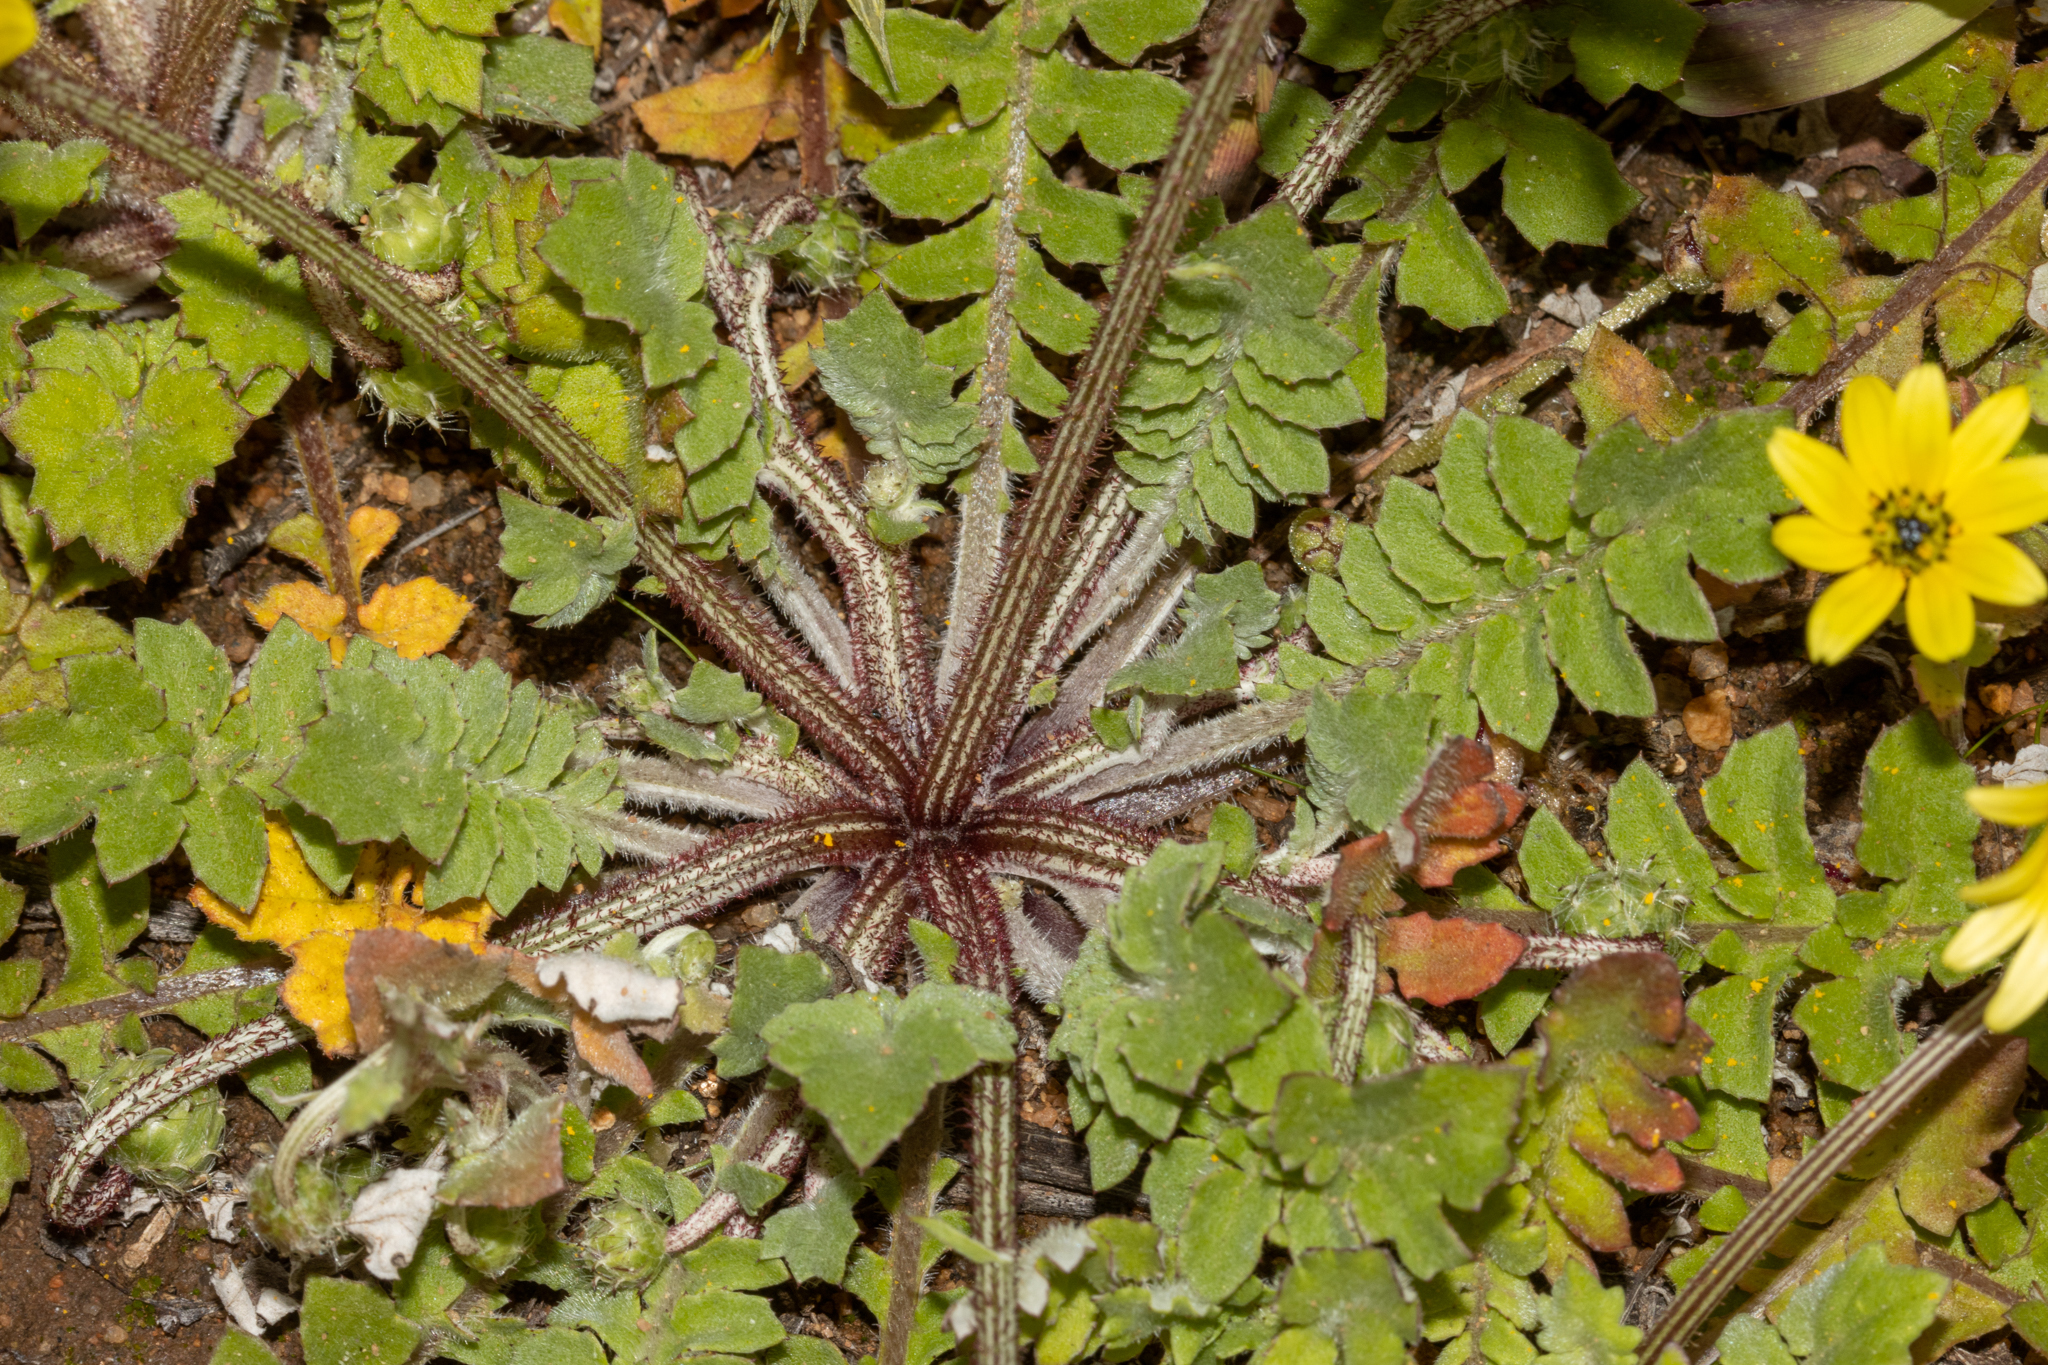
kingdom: Plantae
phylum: Tracheophyta
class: Magnoliopsida
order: Asterales
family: Asteraceae
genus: Arctotheca
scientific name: Arctotheca calendula
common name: Capeweed
